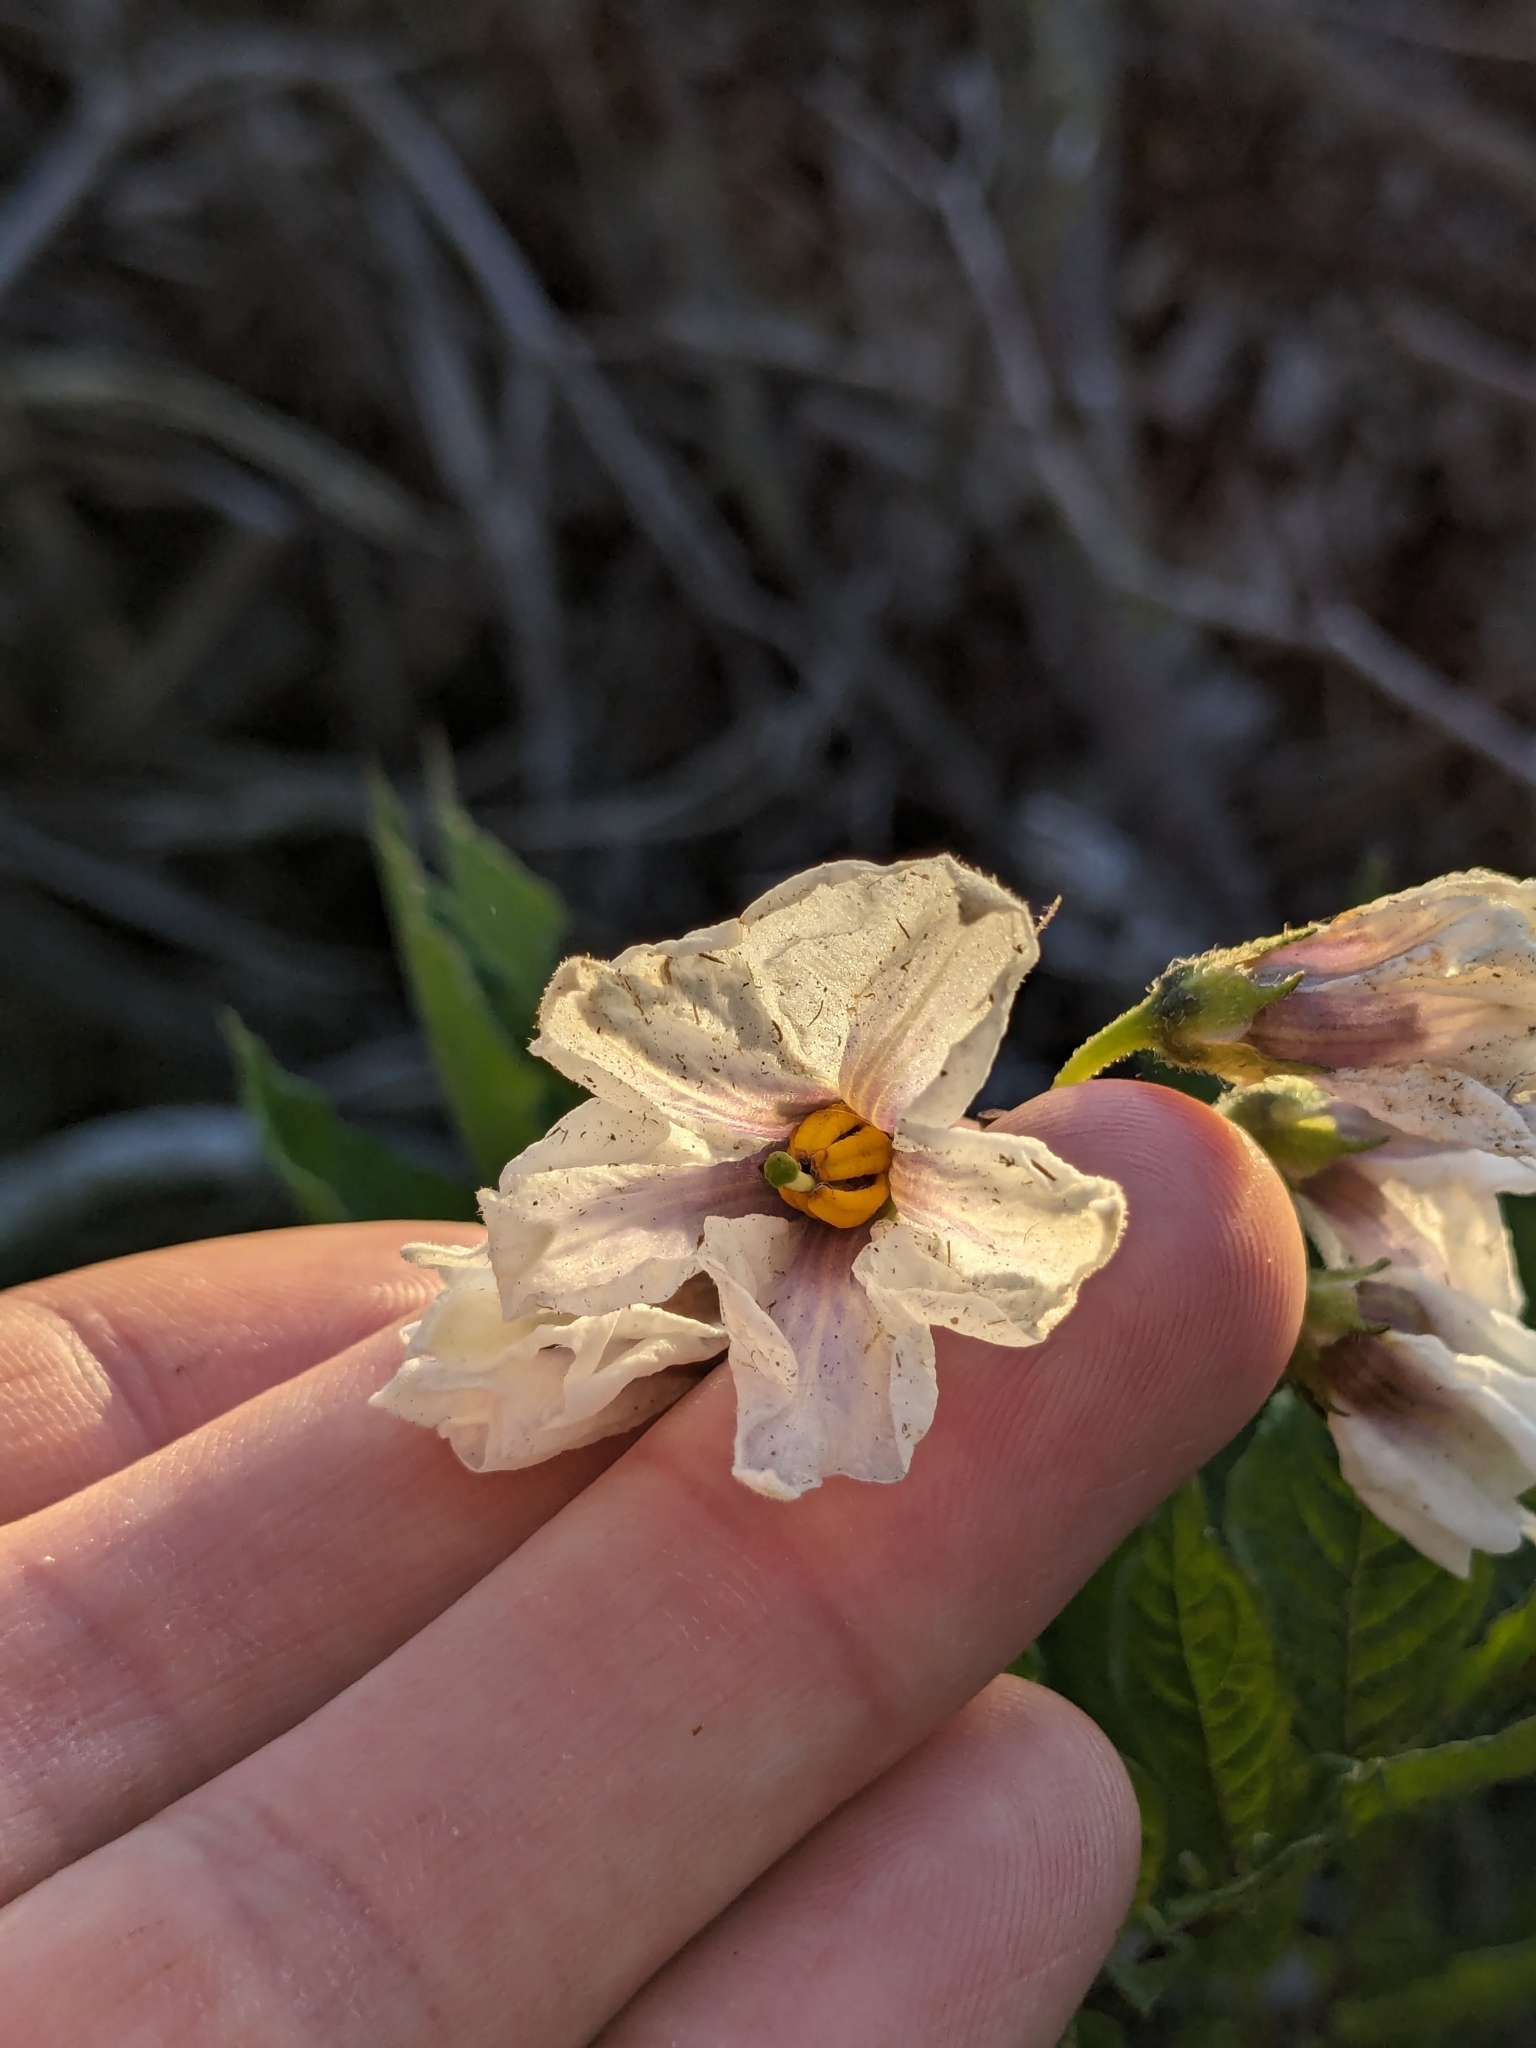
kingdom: Plantae
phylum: Tracheophyta
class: Magnoliopsida
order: Solanales
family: Solanaceae
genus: Solanum
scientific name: Solanum tuberosum
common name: Potato
